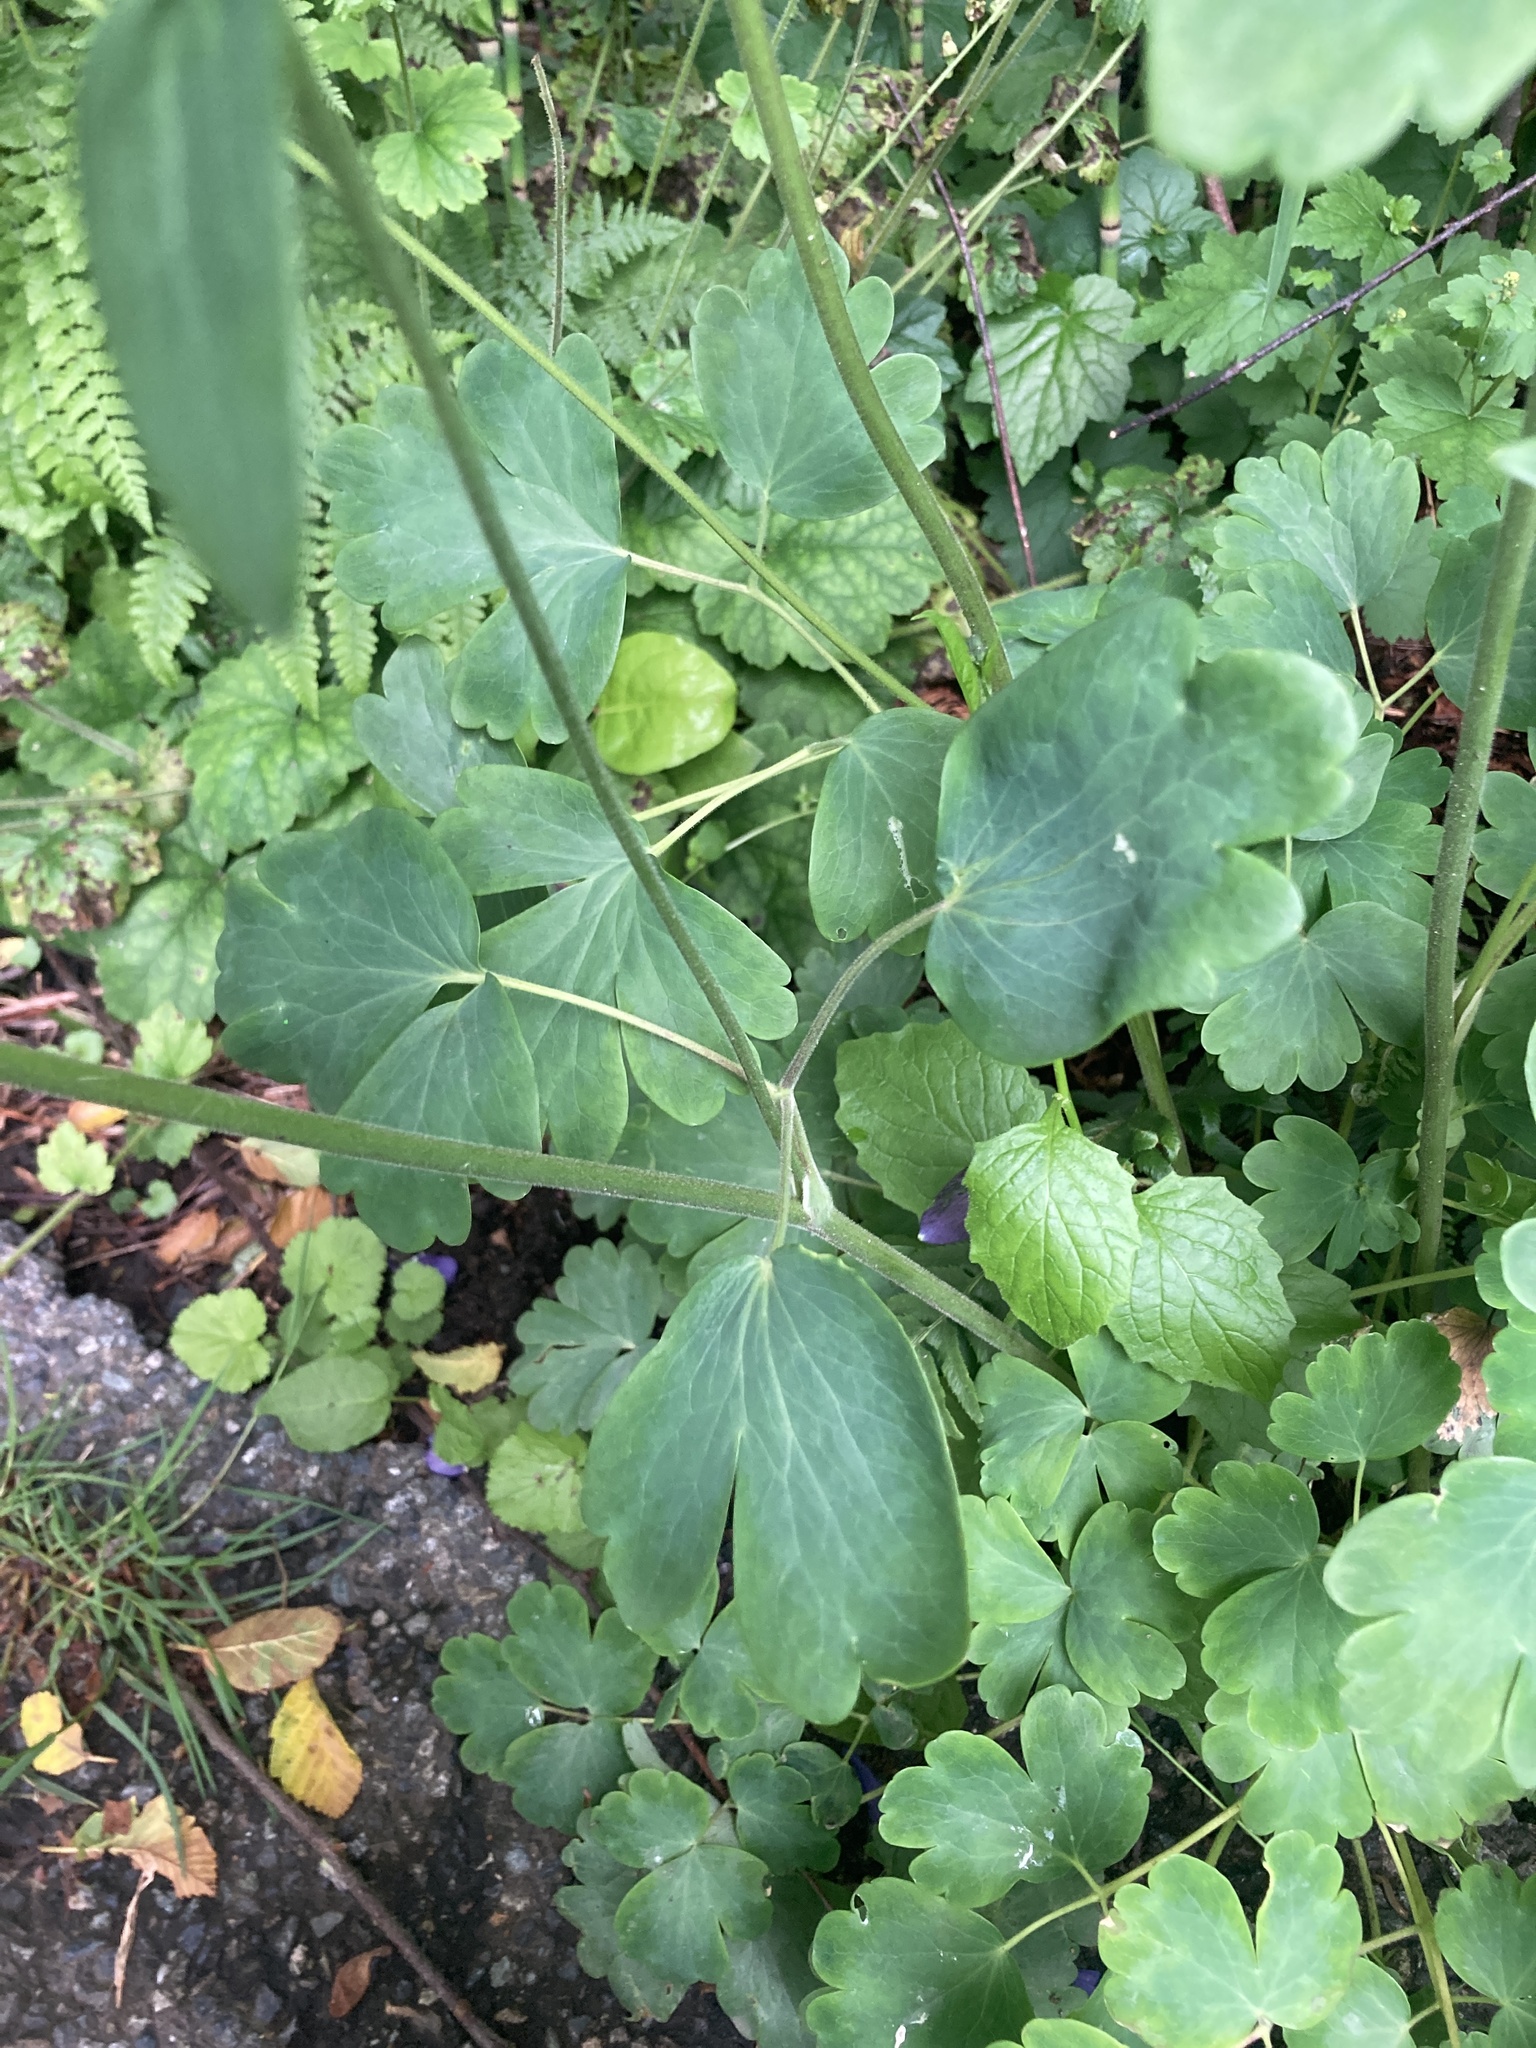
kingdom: Plantae
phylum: Tracheophyta
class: Magnoliopsida
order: Ranunculales
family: Ranunculaceae
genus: Aquilegia
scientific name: Aquilegia vulgaris
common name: Columbine
